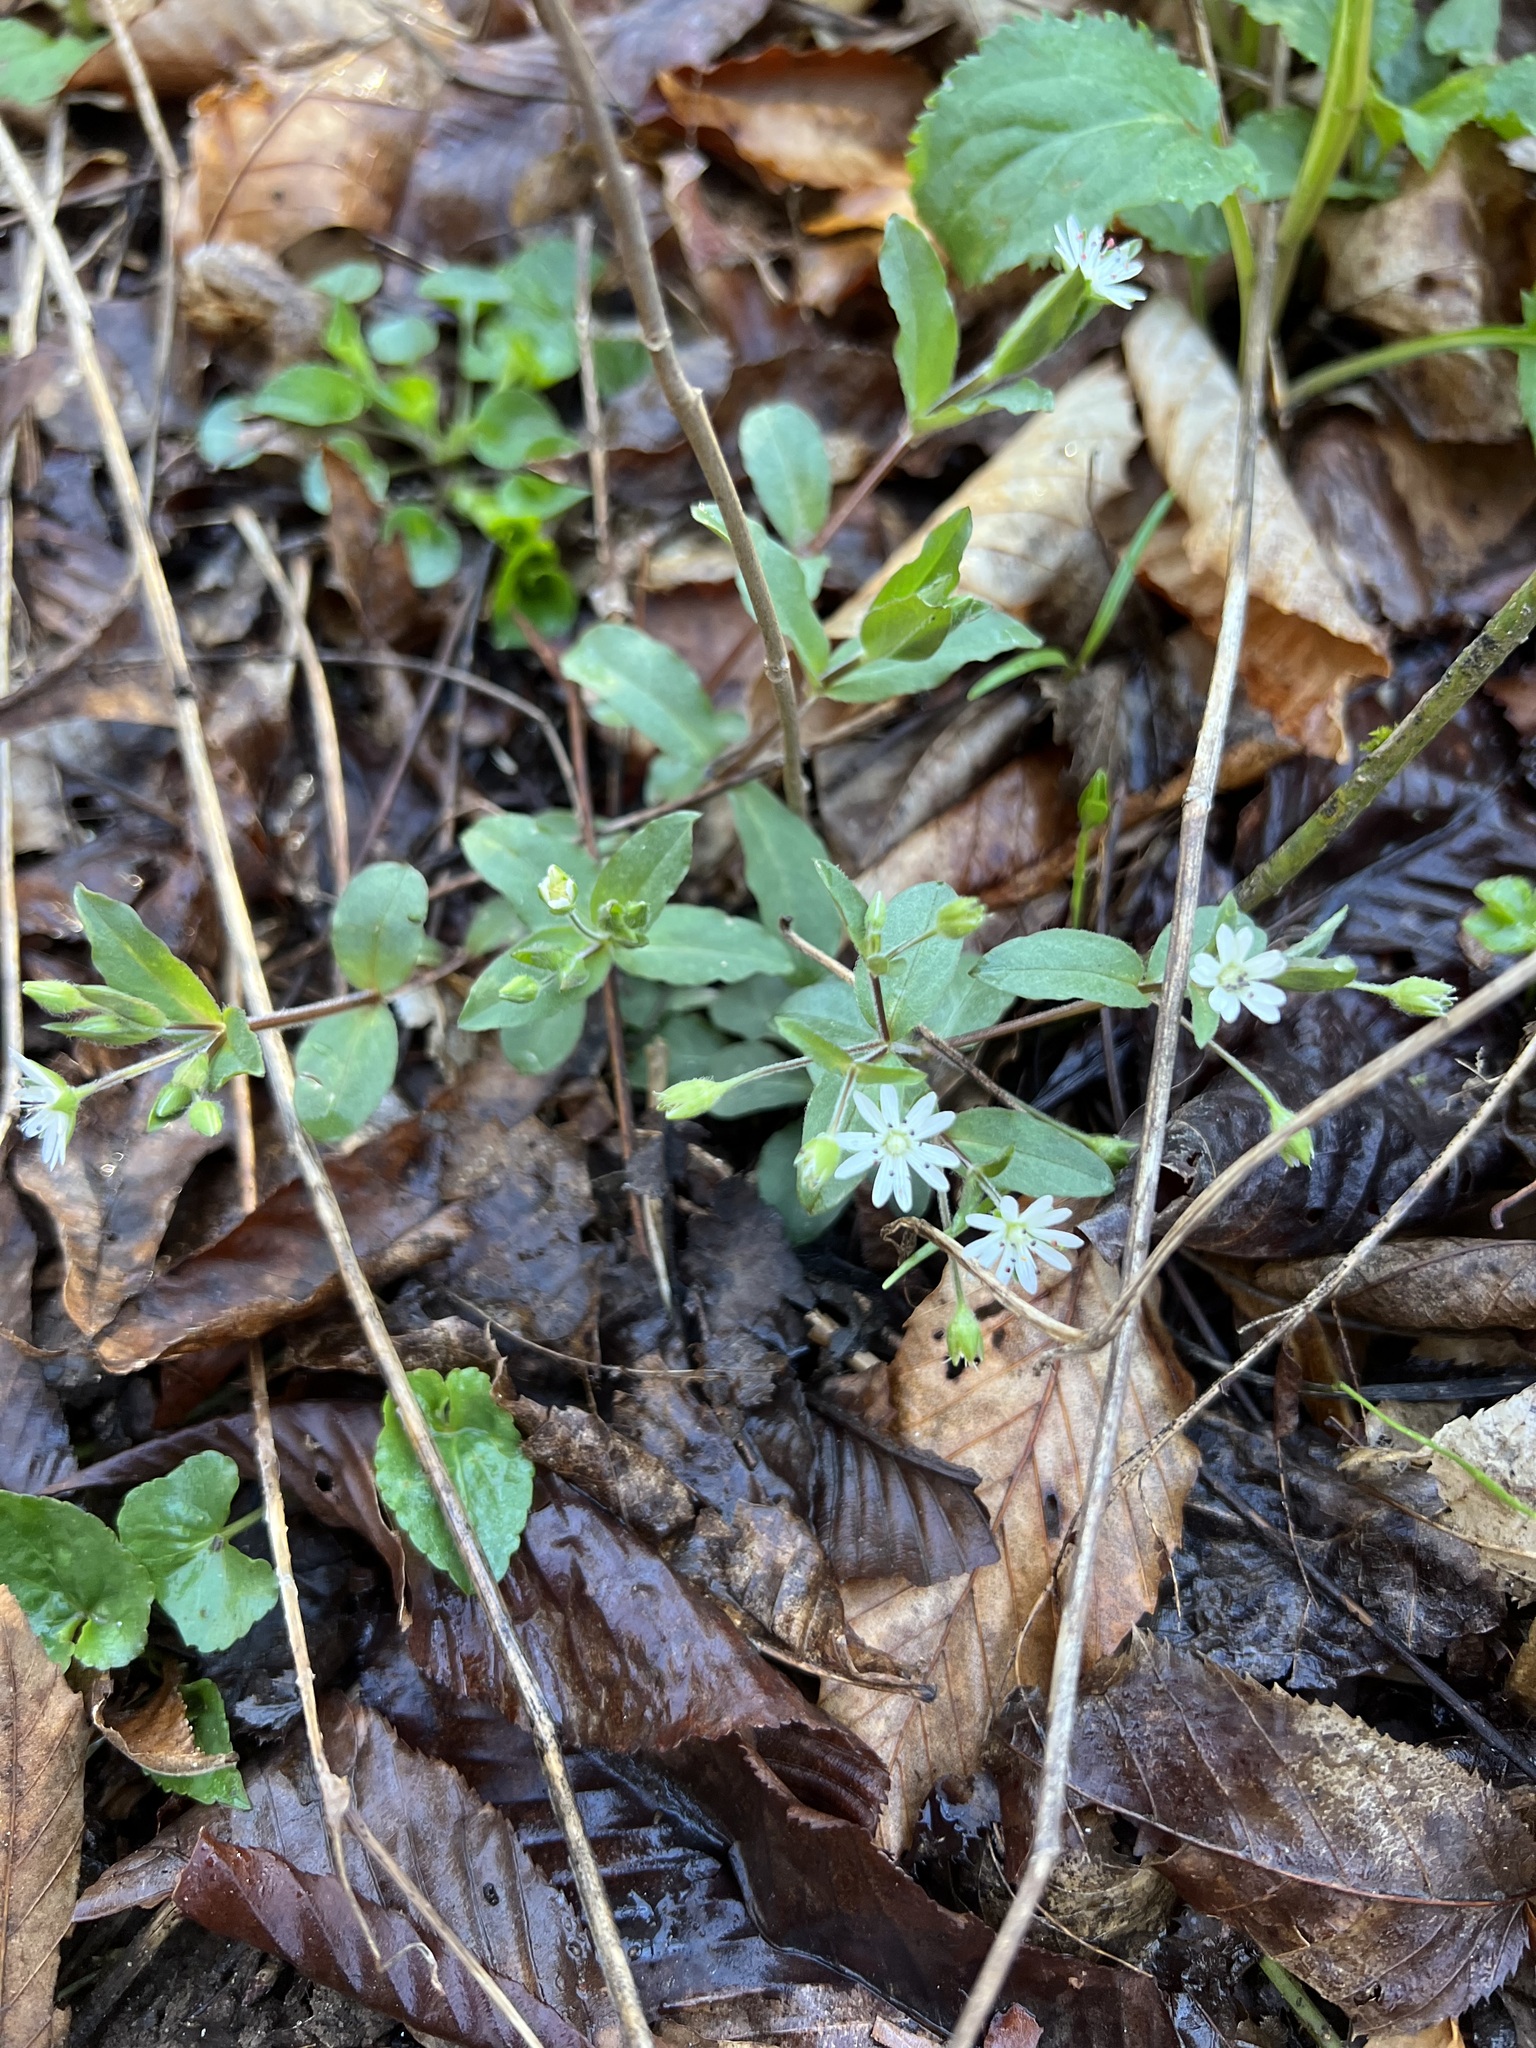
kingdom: Plantae
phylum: Tracheophyta
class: Magnoliopsida
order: Caryophyllales
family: Caryophyllaceae
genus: Stellaria
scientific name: Stellaria pubera
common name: Star chickweed
